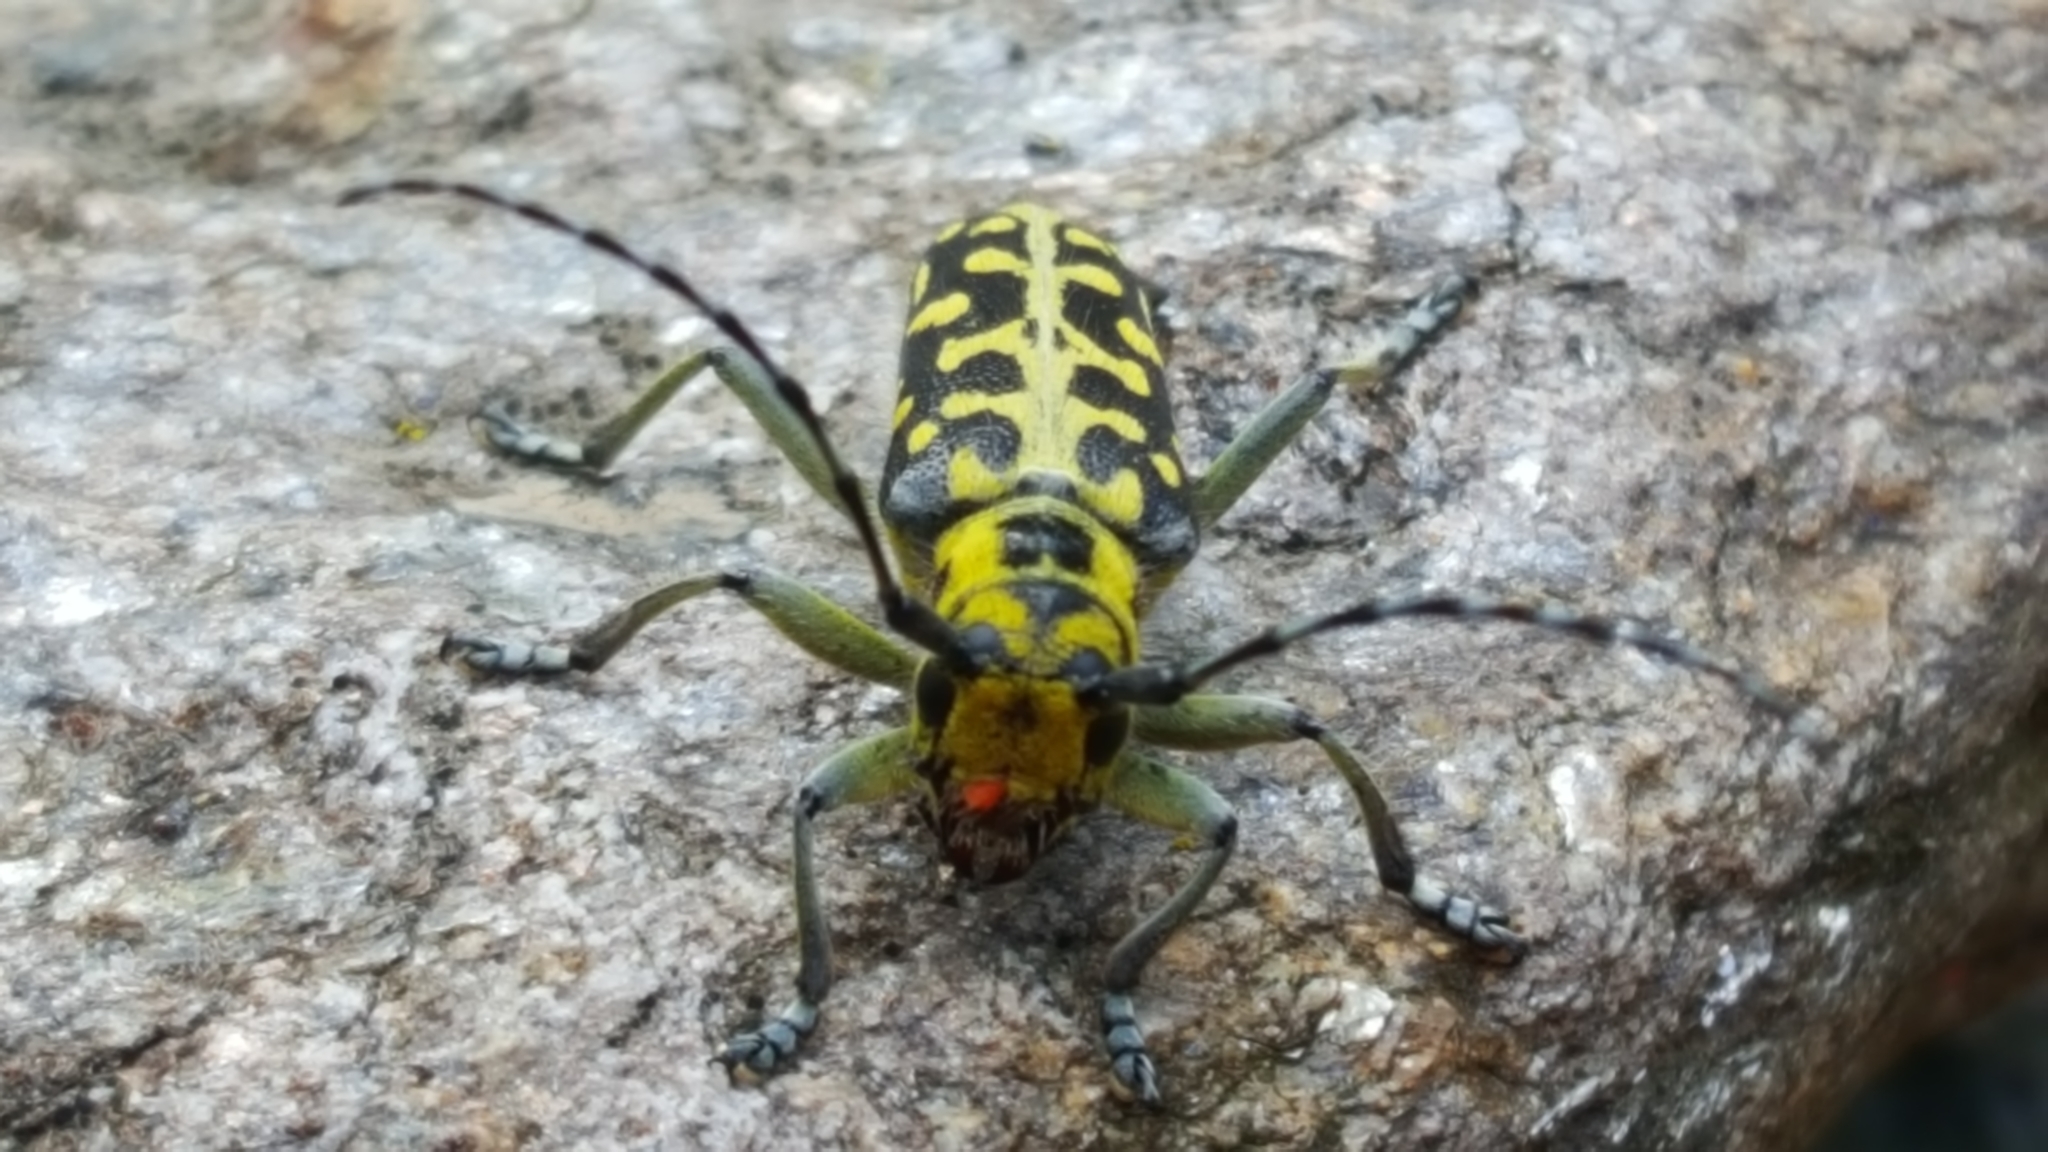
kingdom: Animalia
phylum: Arthropoda
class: Insecta
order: Coleoptera
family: Cerambycidae
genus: Saperda
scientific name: Saperda scalaris
